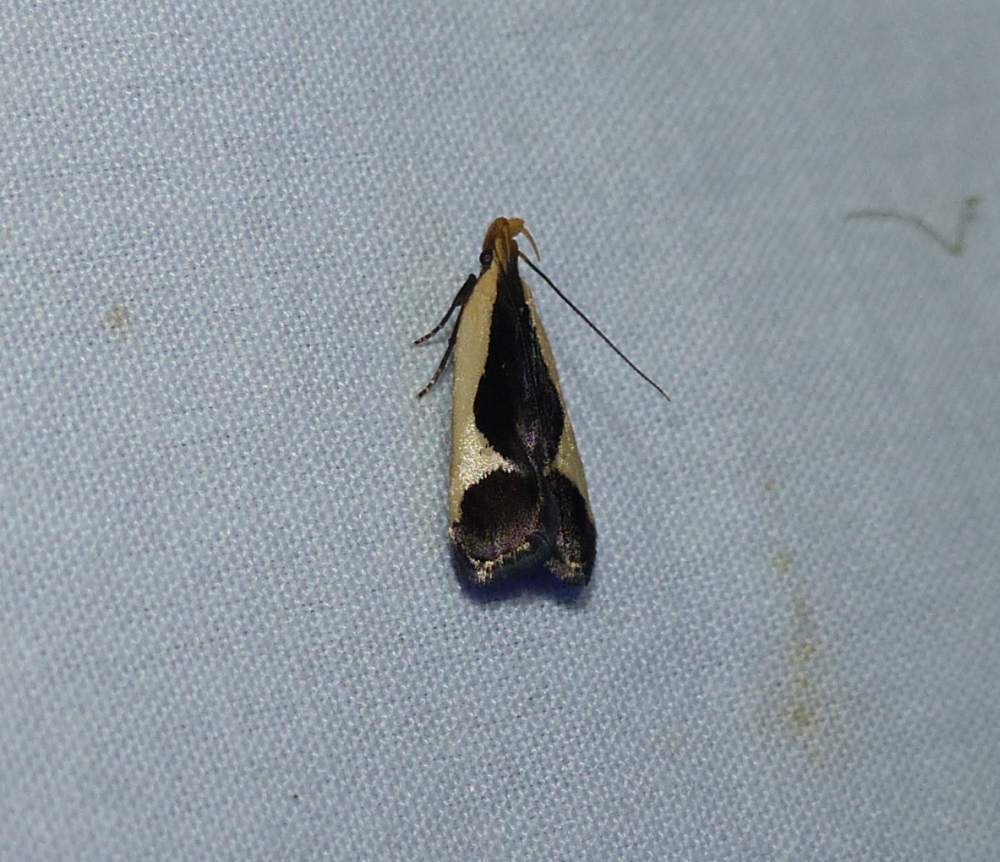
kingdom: Animalia
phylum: Arthropoda
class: Insecta
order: Lepidoptera
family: Gelechiidae
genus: Dichomeris
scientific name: Dichomeris flavocostella
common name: Cream-edged dichomeris moth
